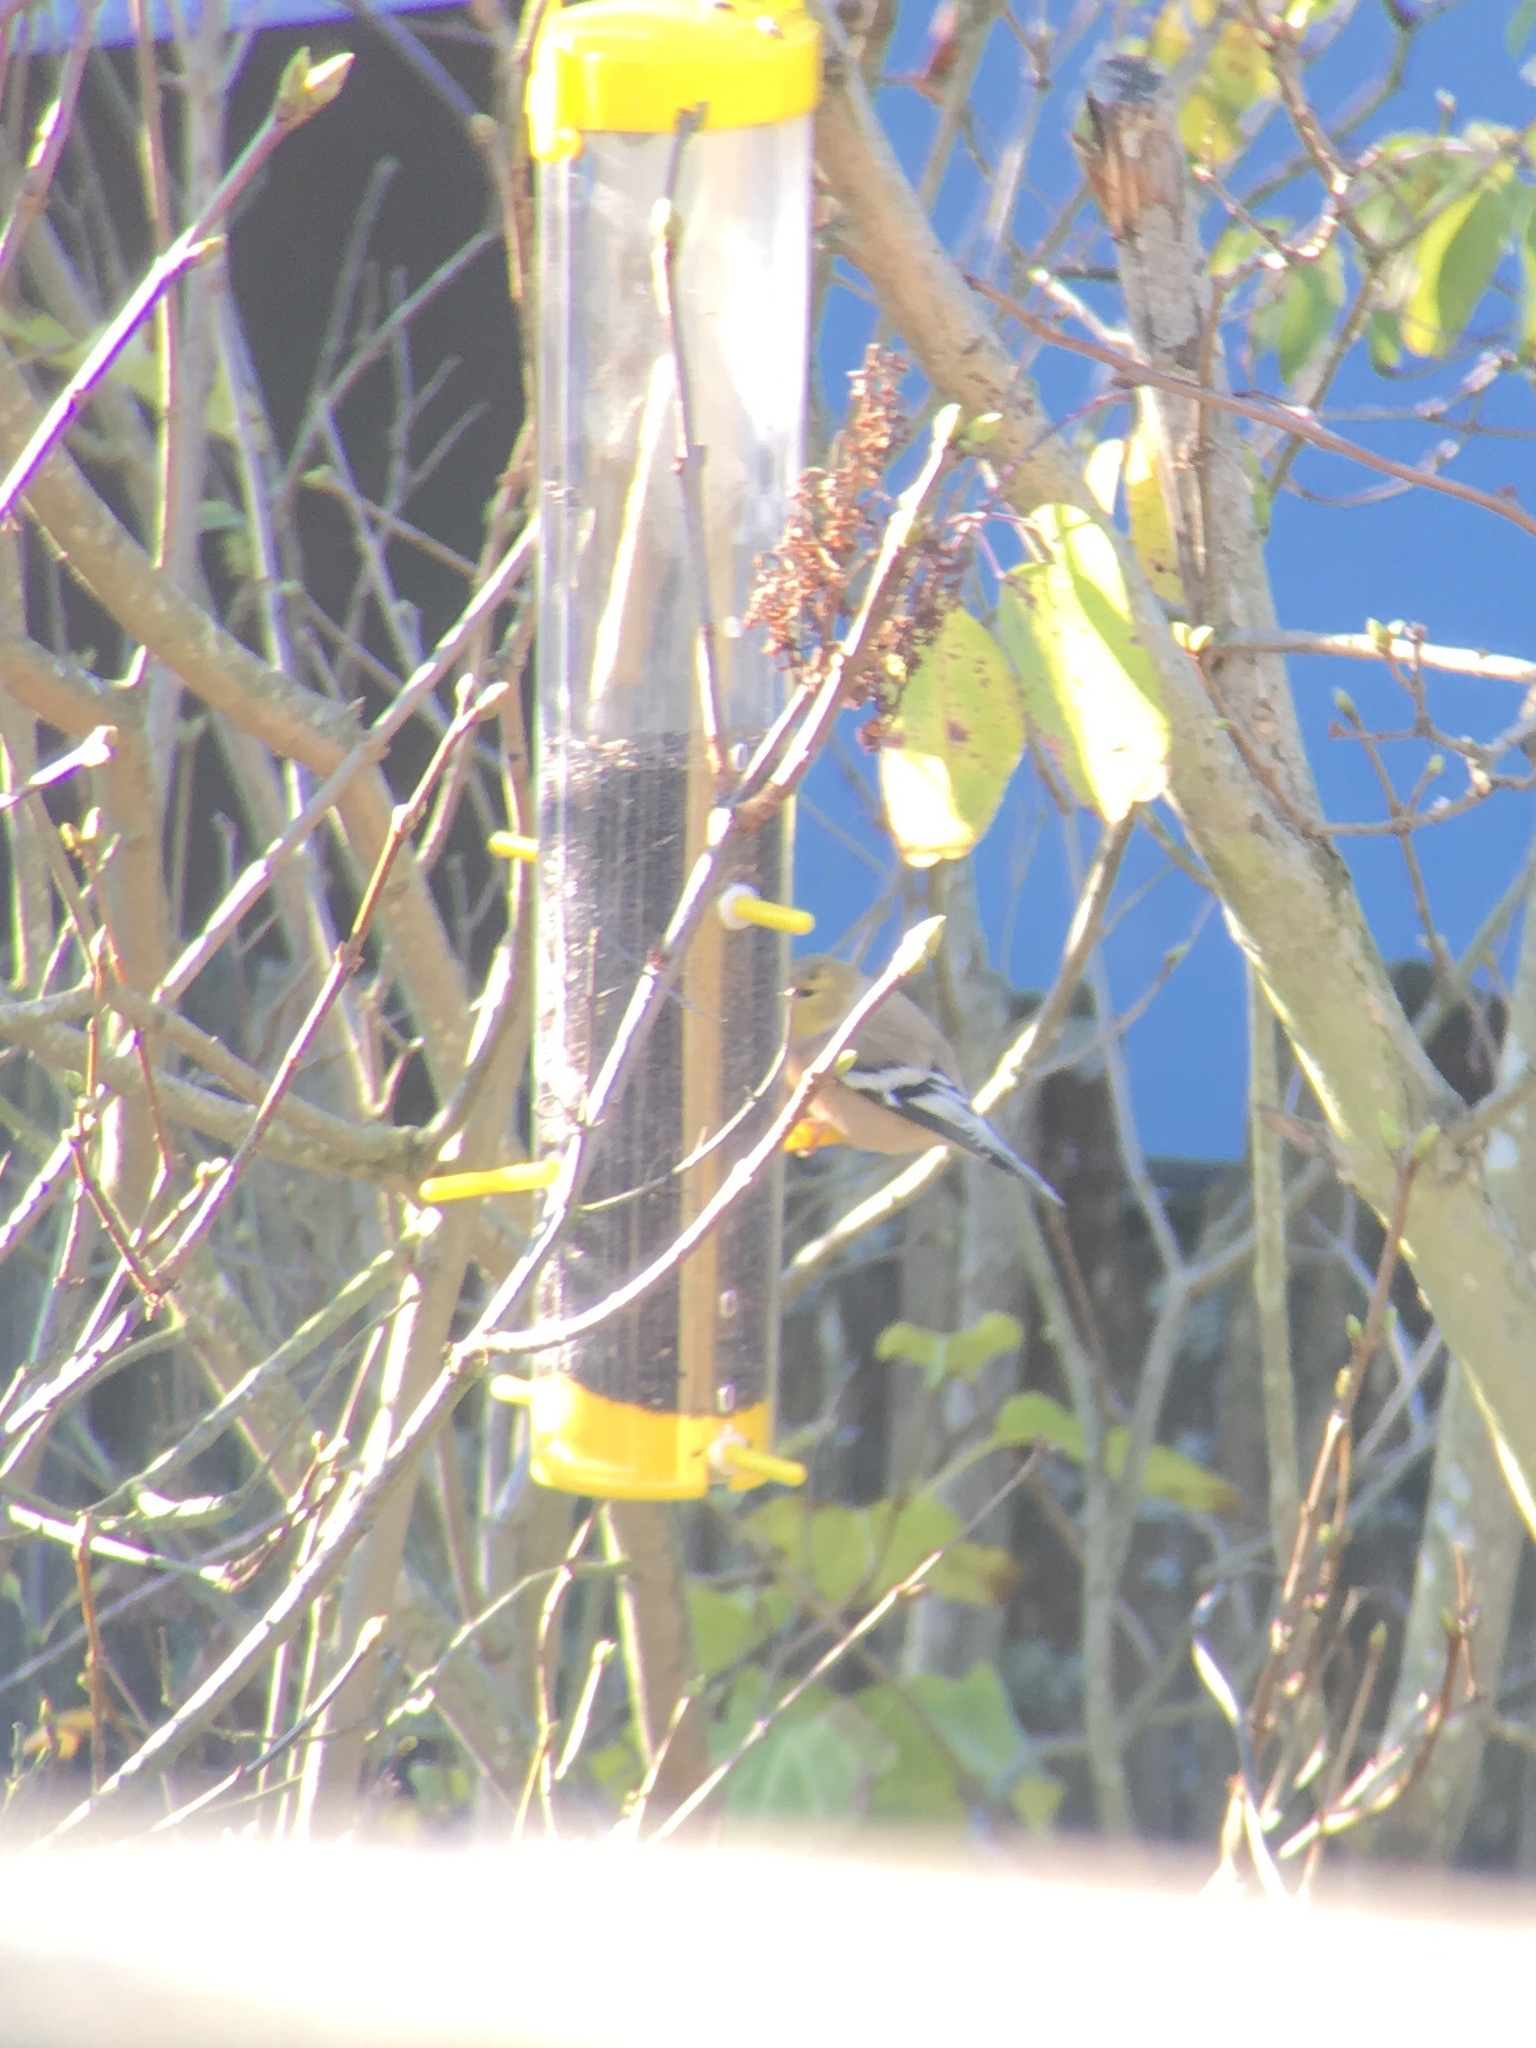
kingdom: Animalia
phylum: Chordata
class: Aves
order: Passeriformes
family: Fringillidae
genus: Spinus
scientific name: Spinus tristis
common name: American goldfinch
